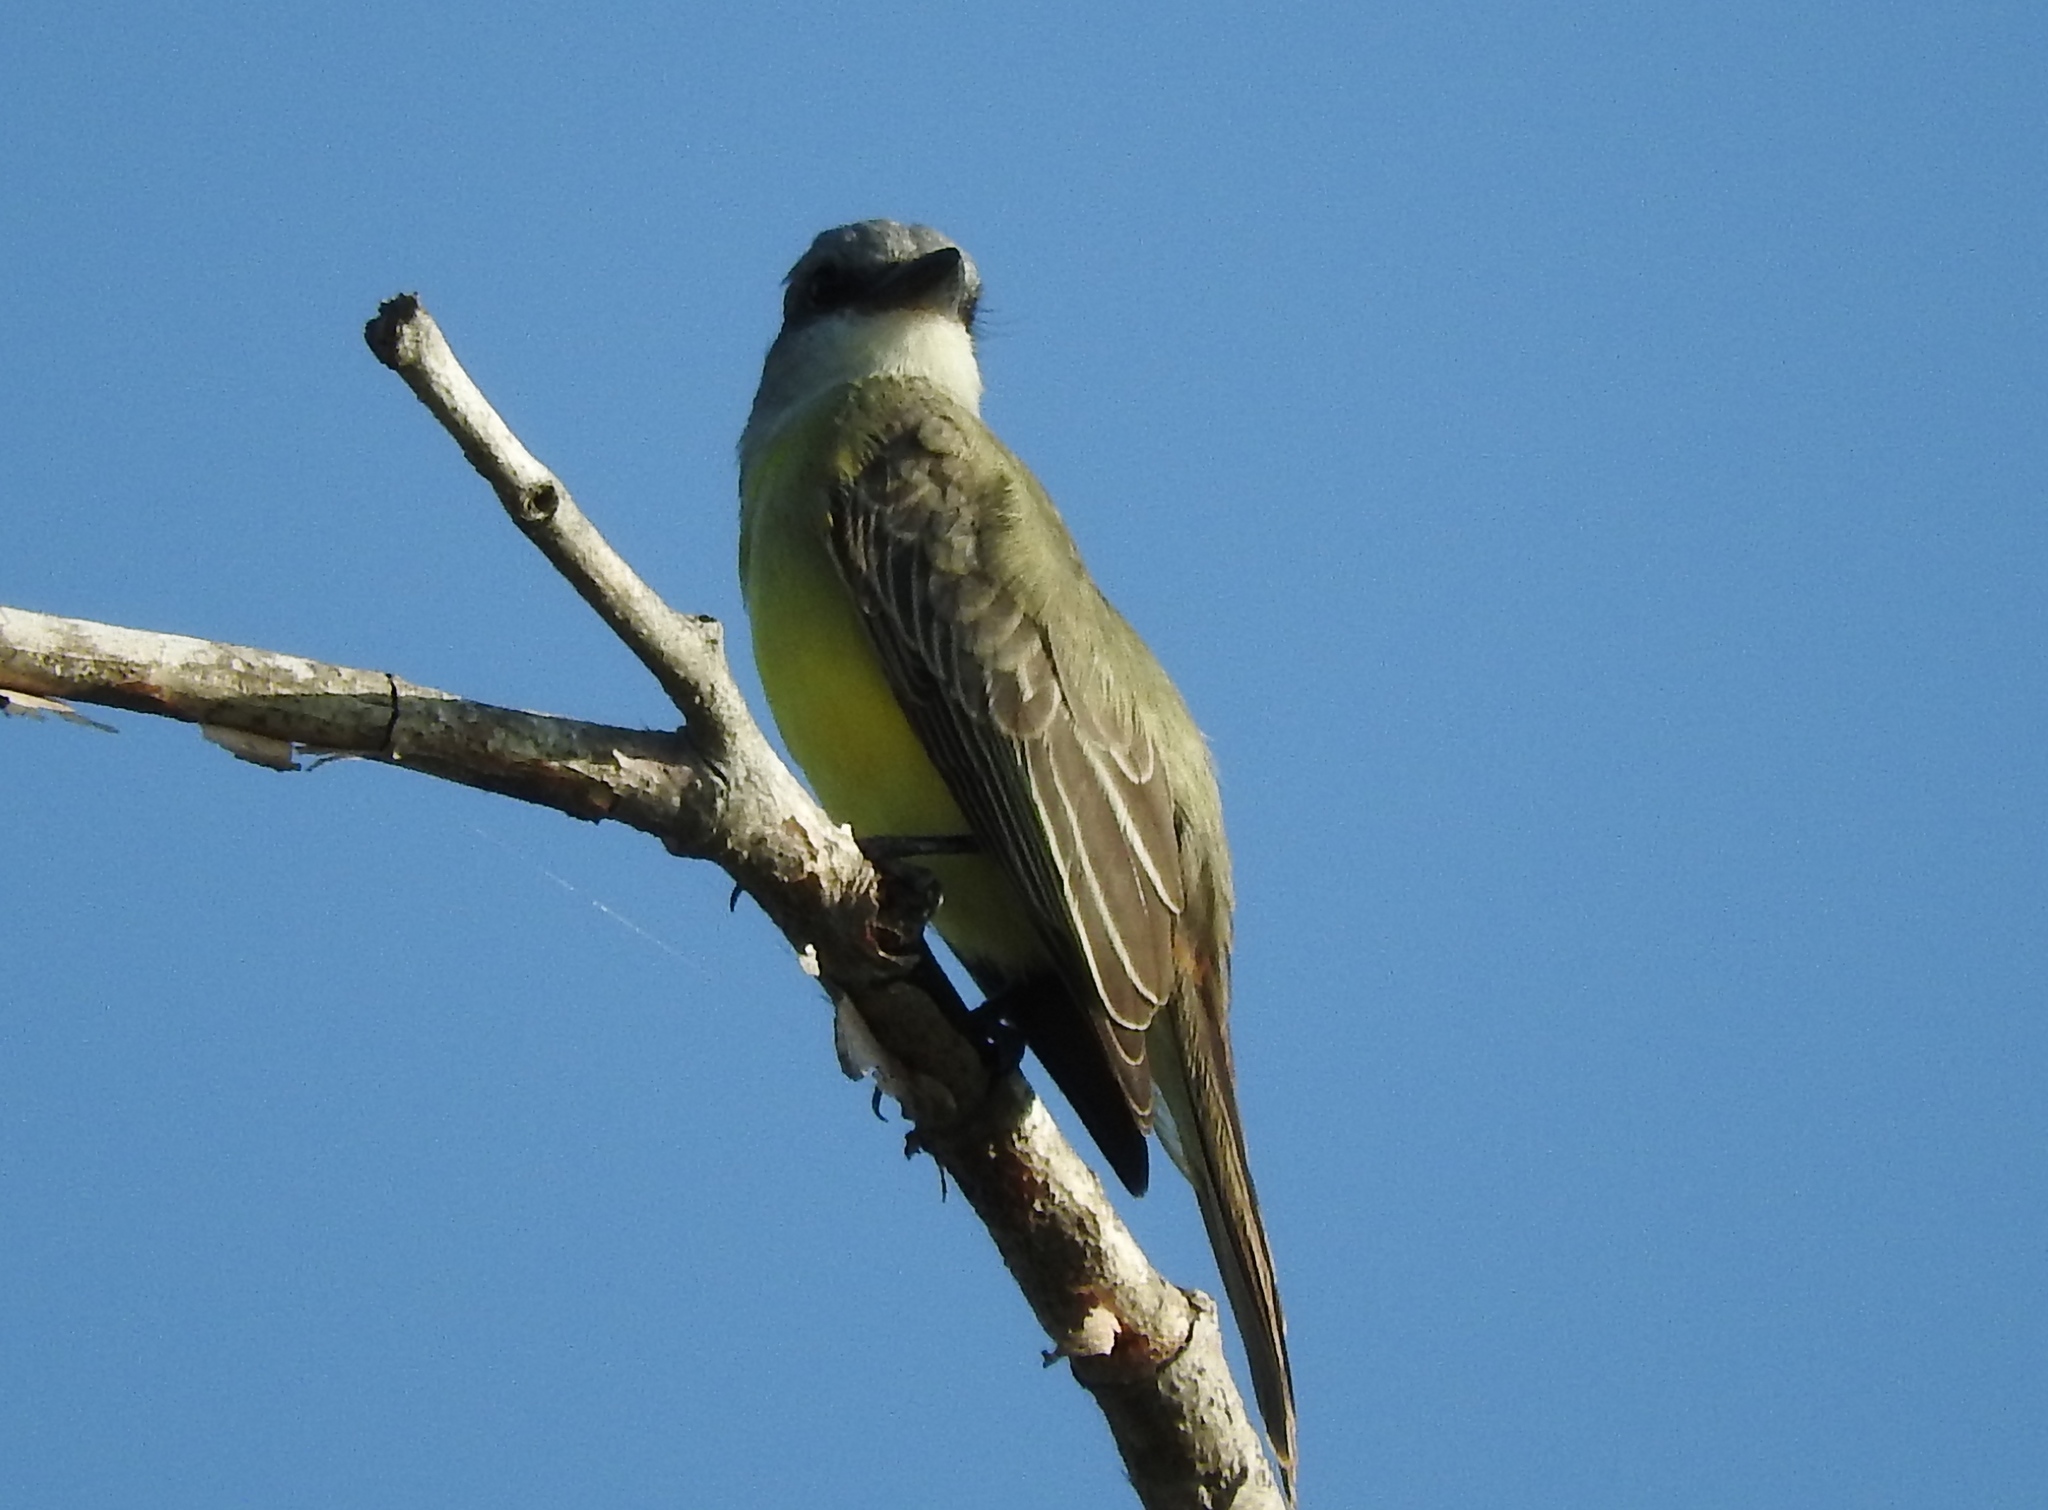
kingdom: Animalia
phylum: Chordata
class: Aves
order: Passeriformes
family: Tyrannidae
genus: Tyrannus
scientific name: Tyrannus melancholicus
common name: Tropical kingbird
